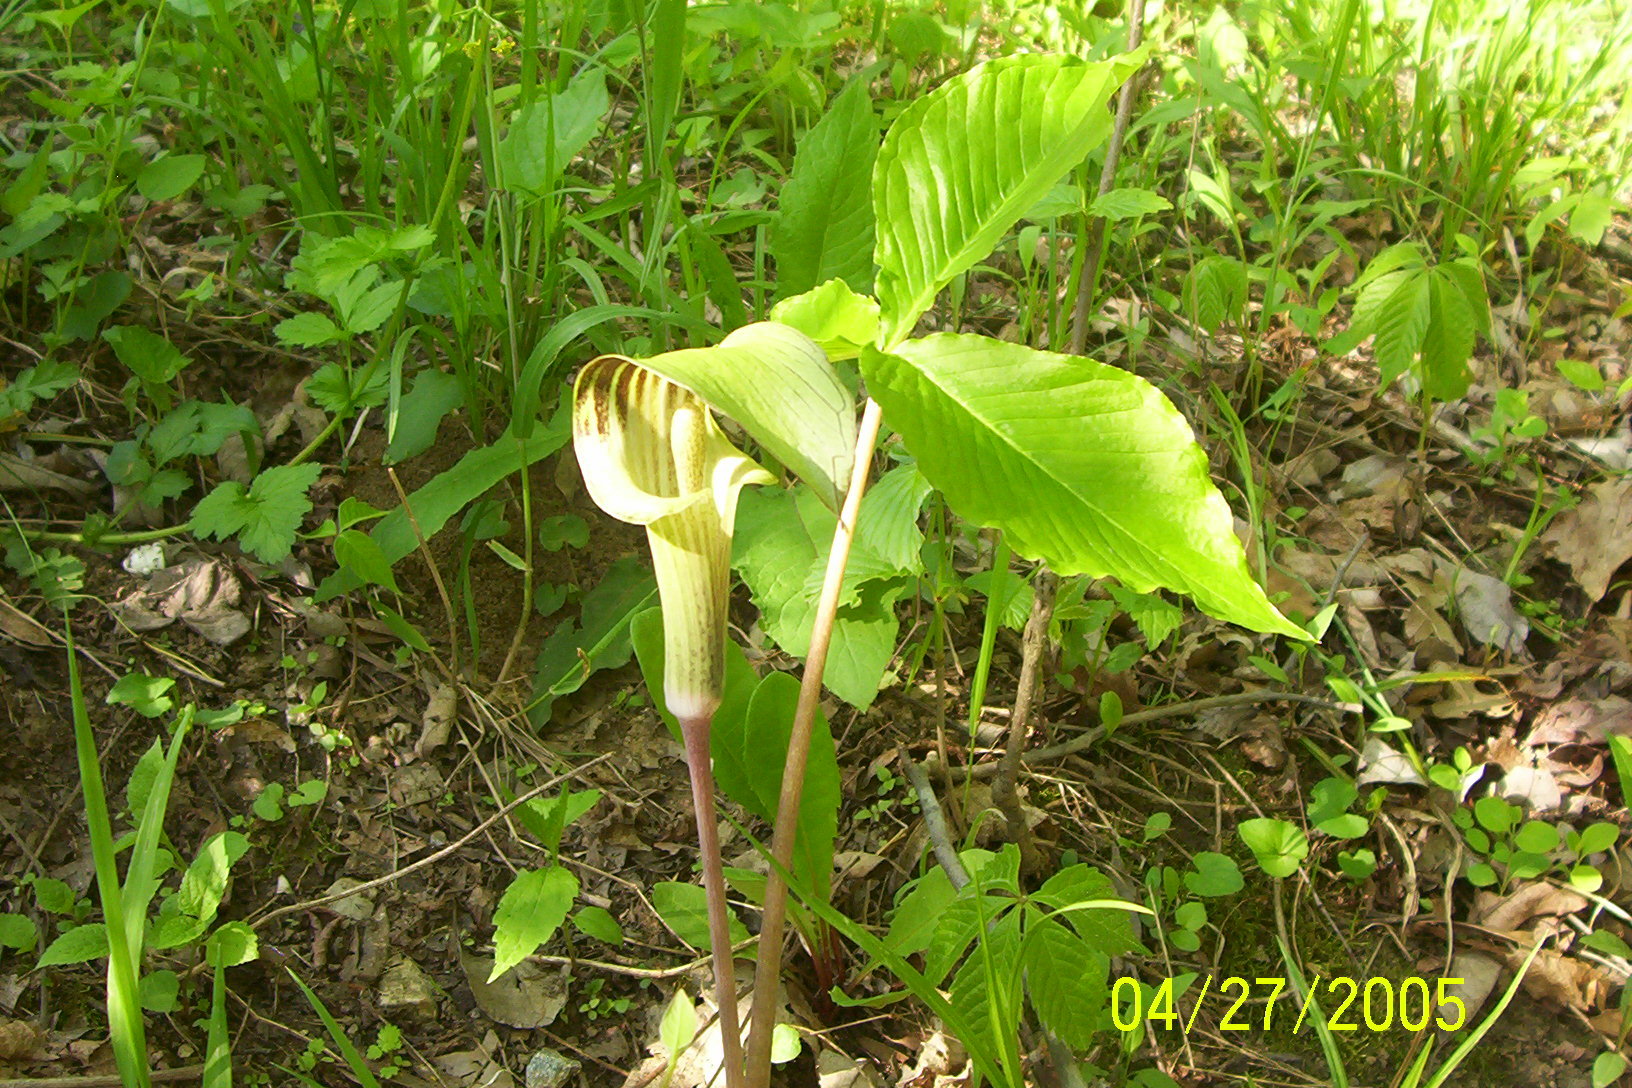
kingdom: Plantae
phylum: Tracheophyta
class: Liliopsida
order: Alismatales
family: Araceae
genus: Arisaema
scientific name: Arisaema triphyllum
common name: Jack-in-the-pulpit
